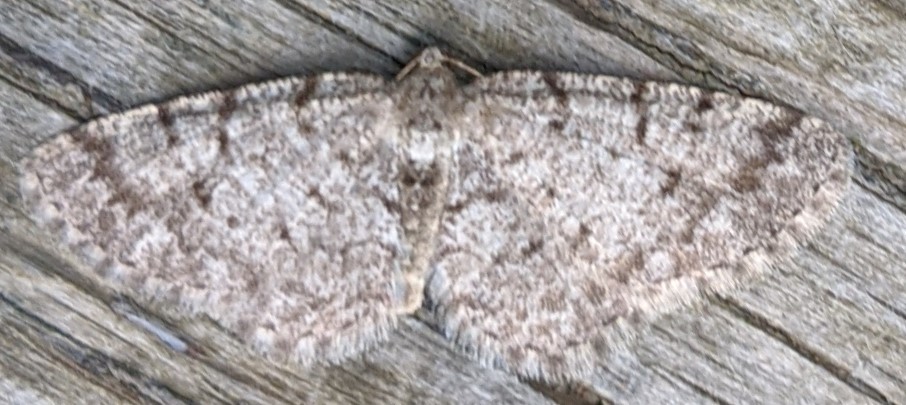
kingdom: Animalia
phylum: Arthropoda
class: Insecta
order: Lepidoptera
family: Geometridae
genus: Aethalura
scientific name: Aethalura intertexta
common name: Four-barred gray
